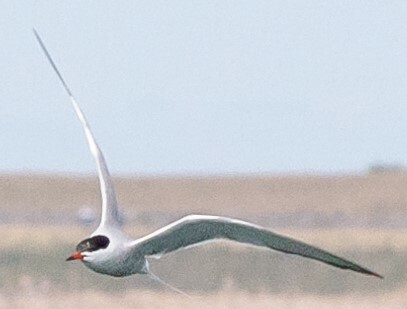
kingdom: Animalia
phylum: Chordata
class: Aves
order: Charadriiformes
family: Laridae
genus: Sterna
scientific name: Sterna hirundo
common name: Common tern
